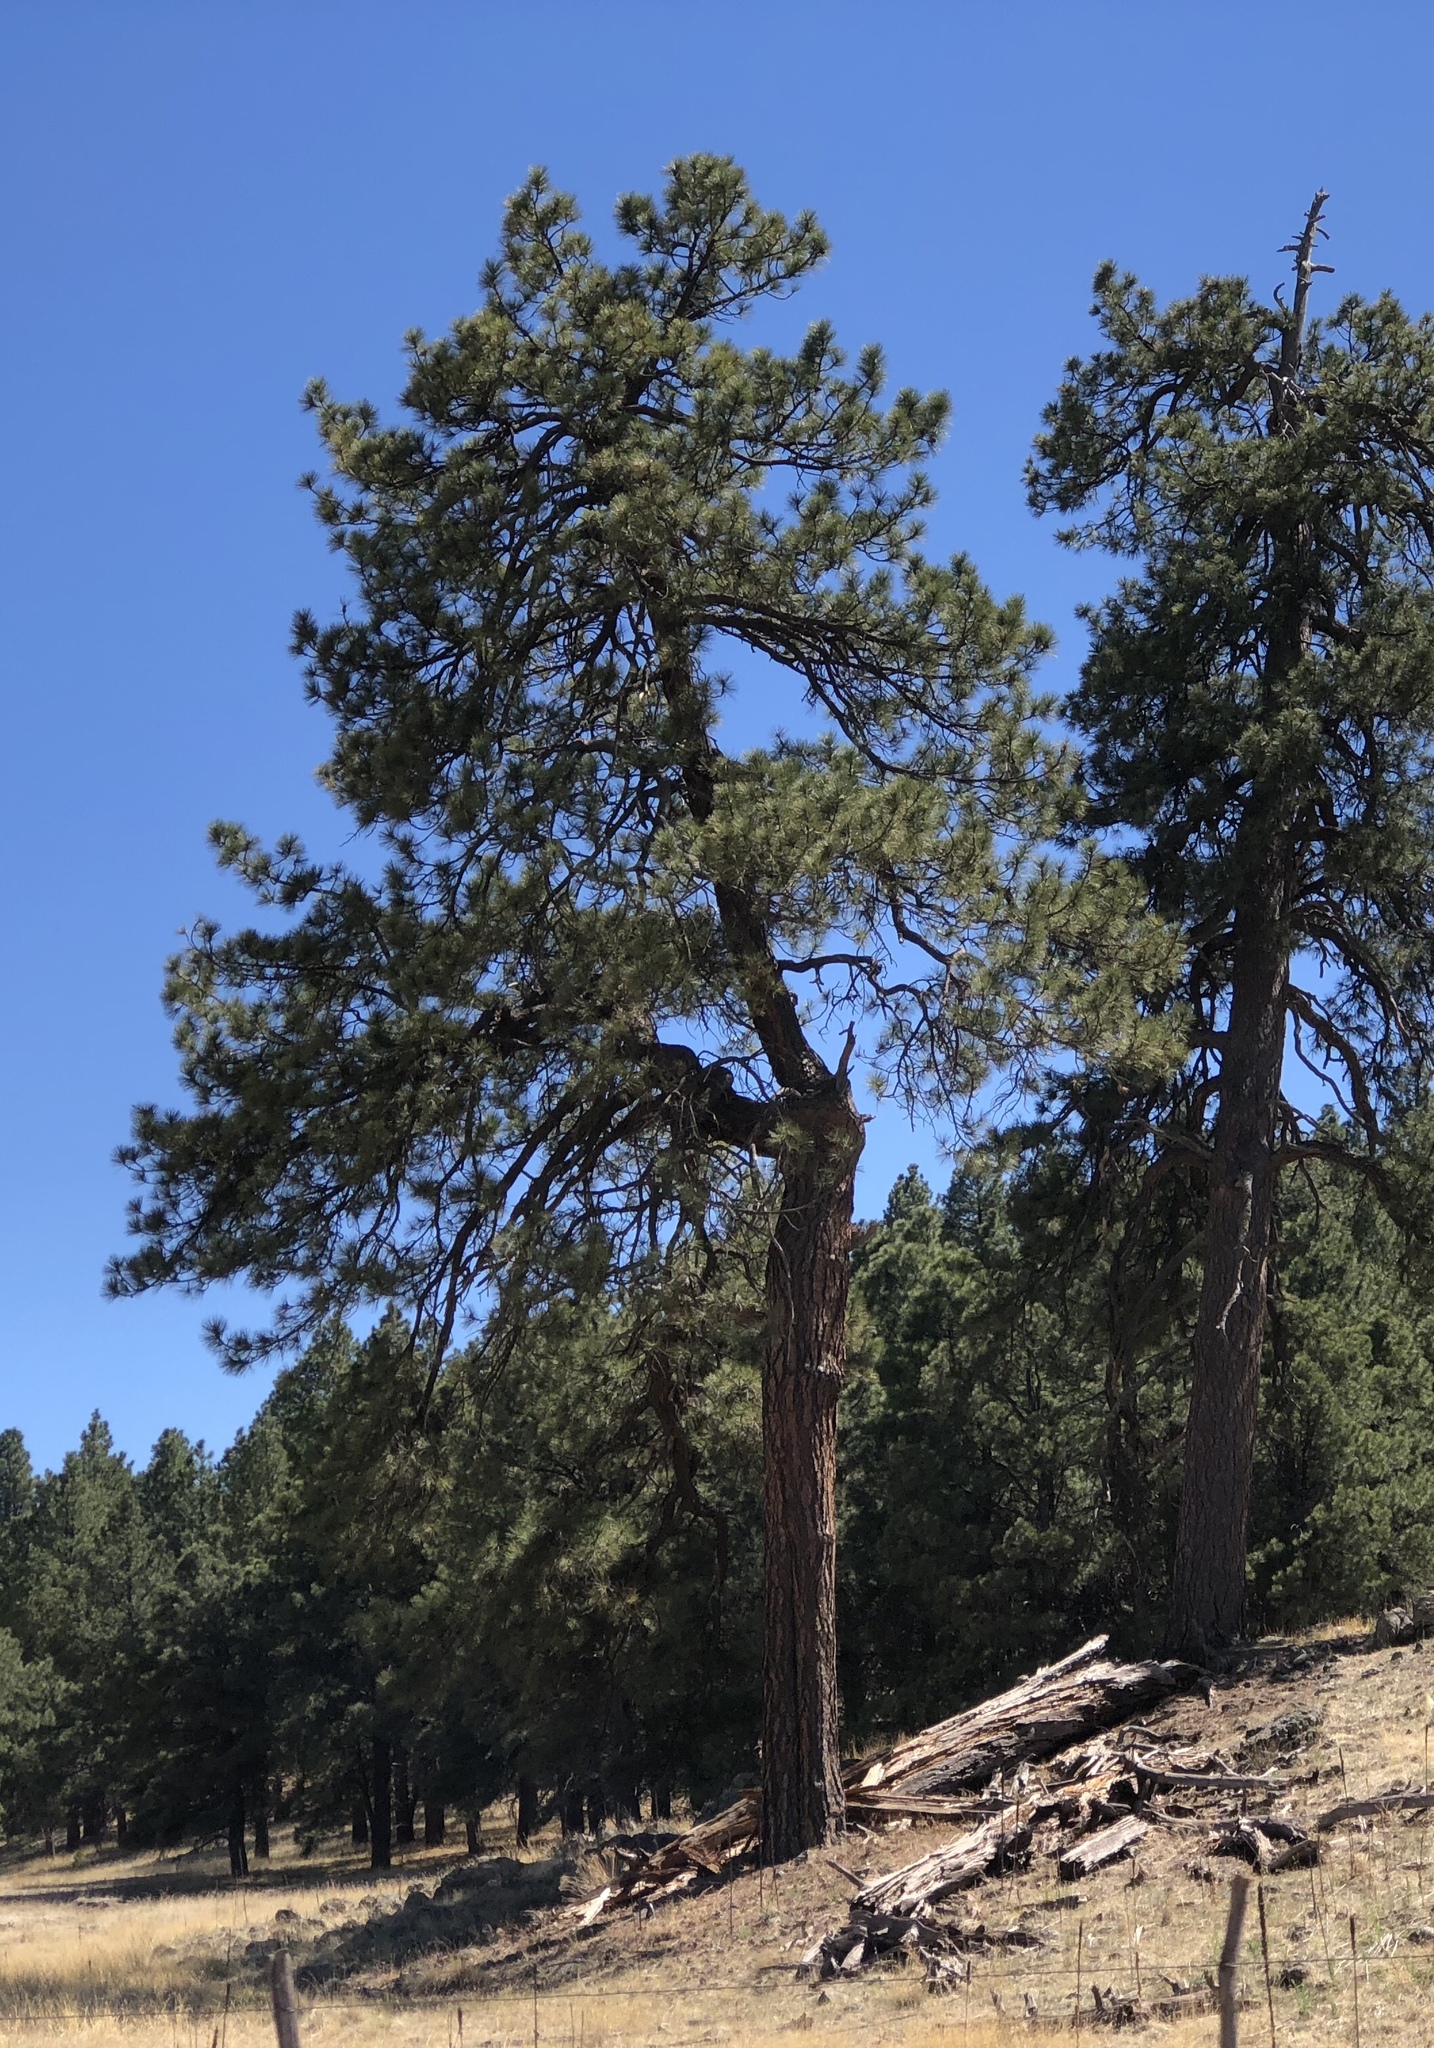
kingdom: Plantae
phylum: Tracheophyta
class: Pinopsida
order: Pinales
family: Pinaceae
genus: Pinus
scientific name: Pinus ponderosa
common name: Western yellow-pine
